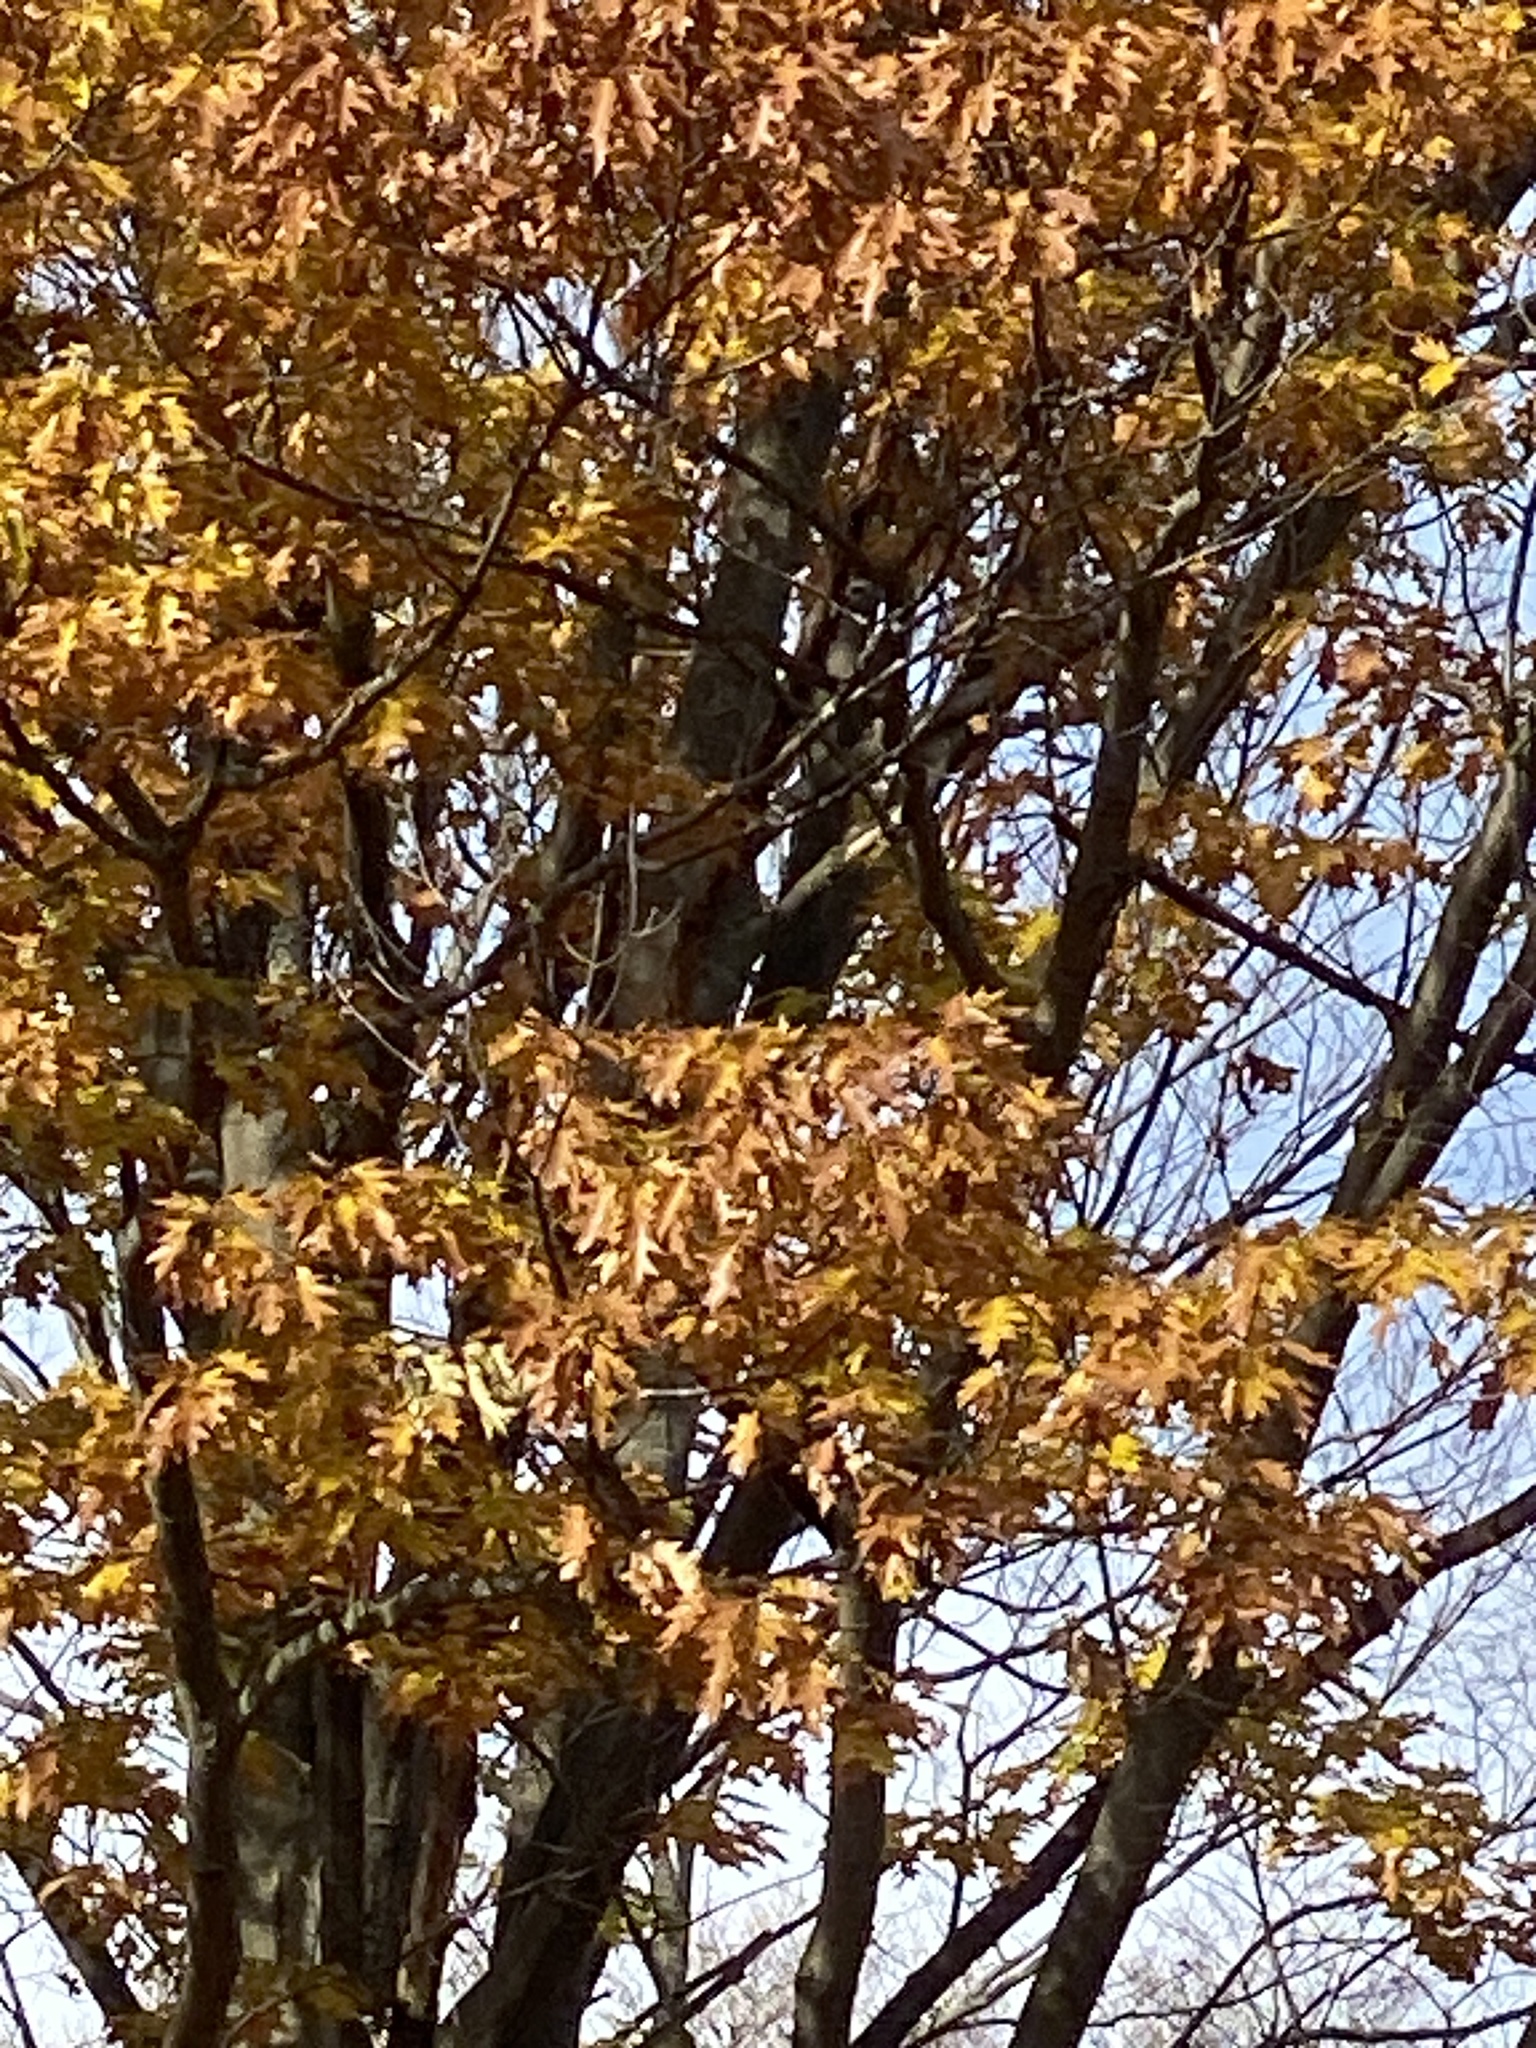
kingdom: Plantae
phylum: Tracheophyta
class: Magnoliopsida
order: Fagales
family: Fagaceae
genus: Quercus
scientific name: Quercus rubra
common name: Red oak
